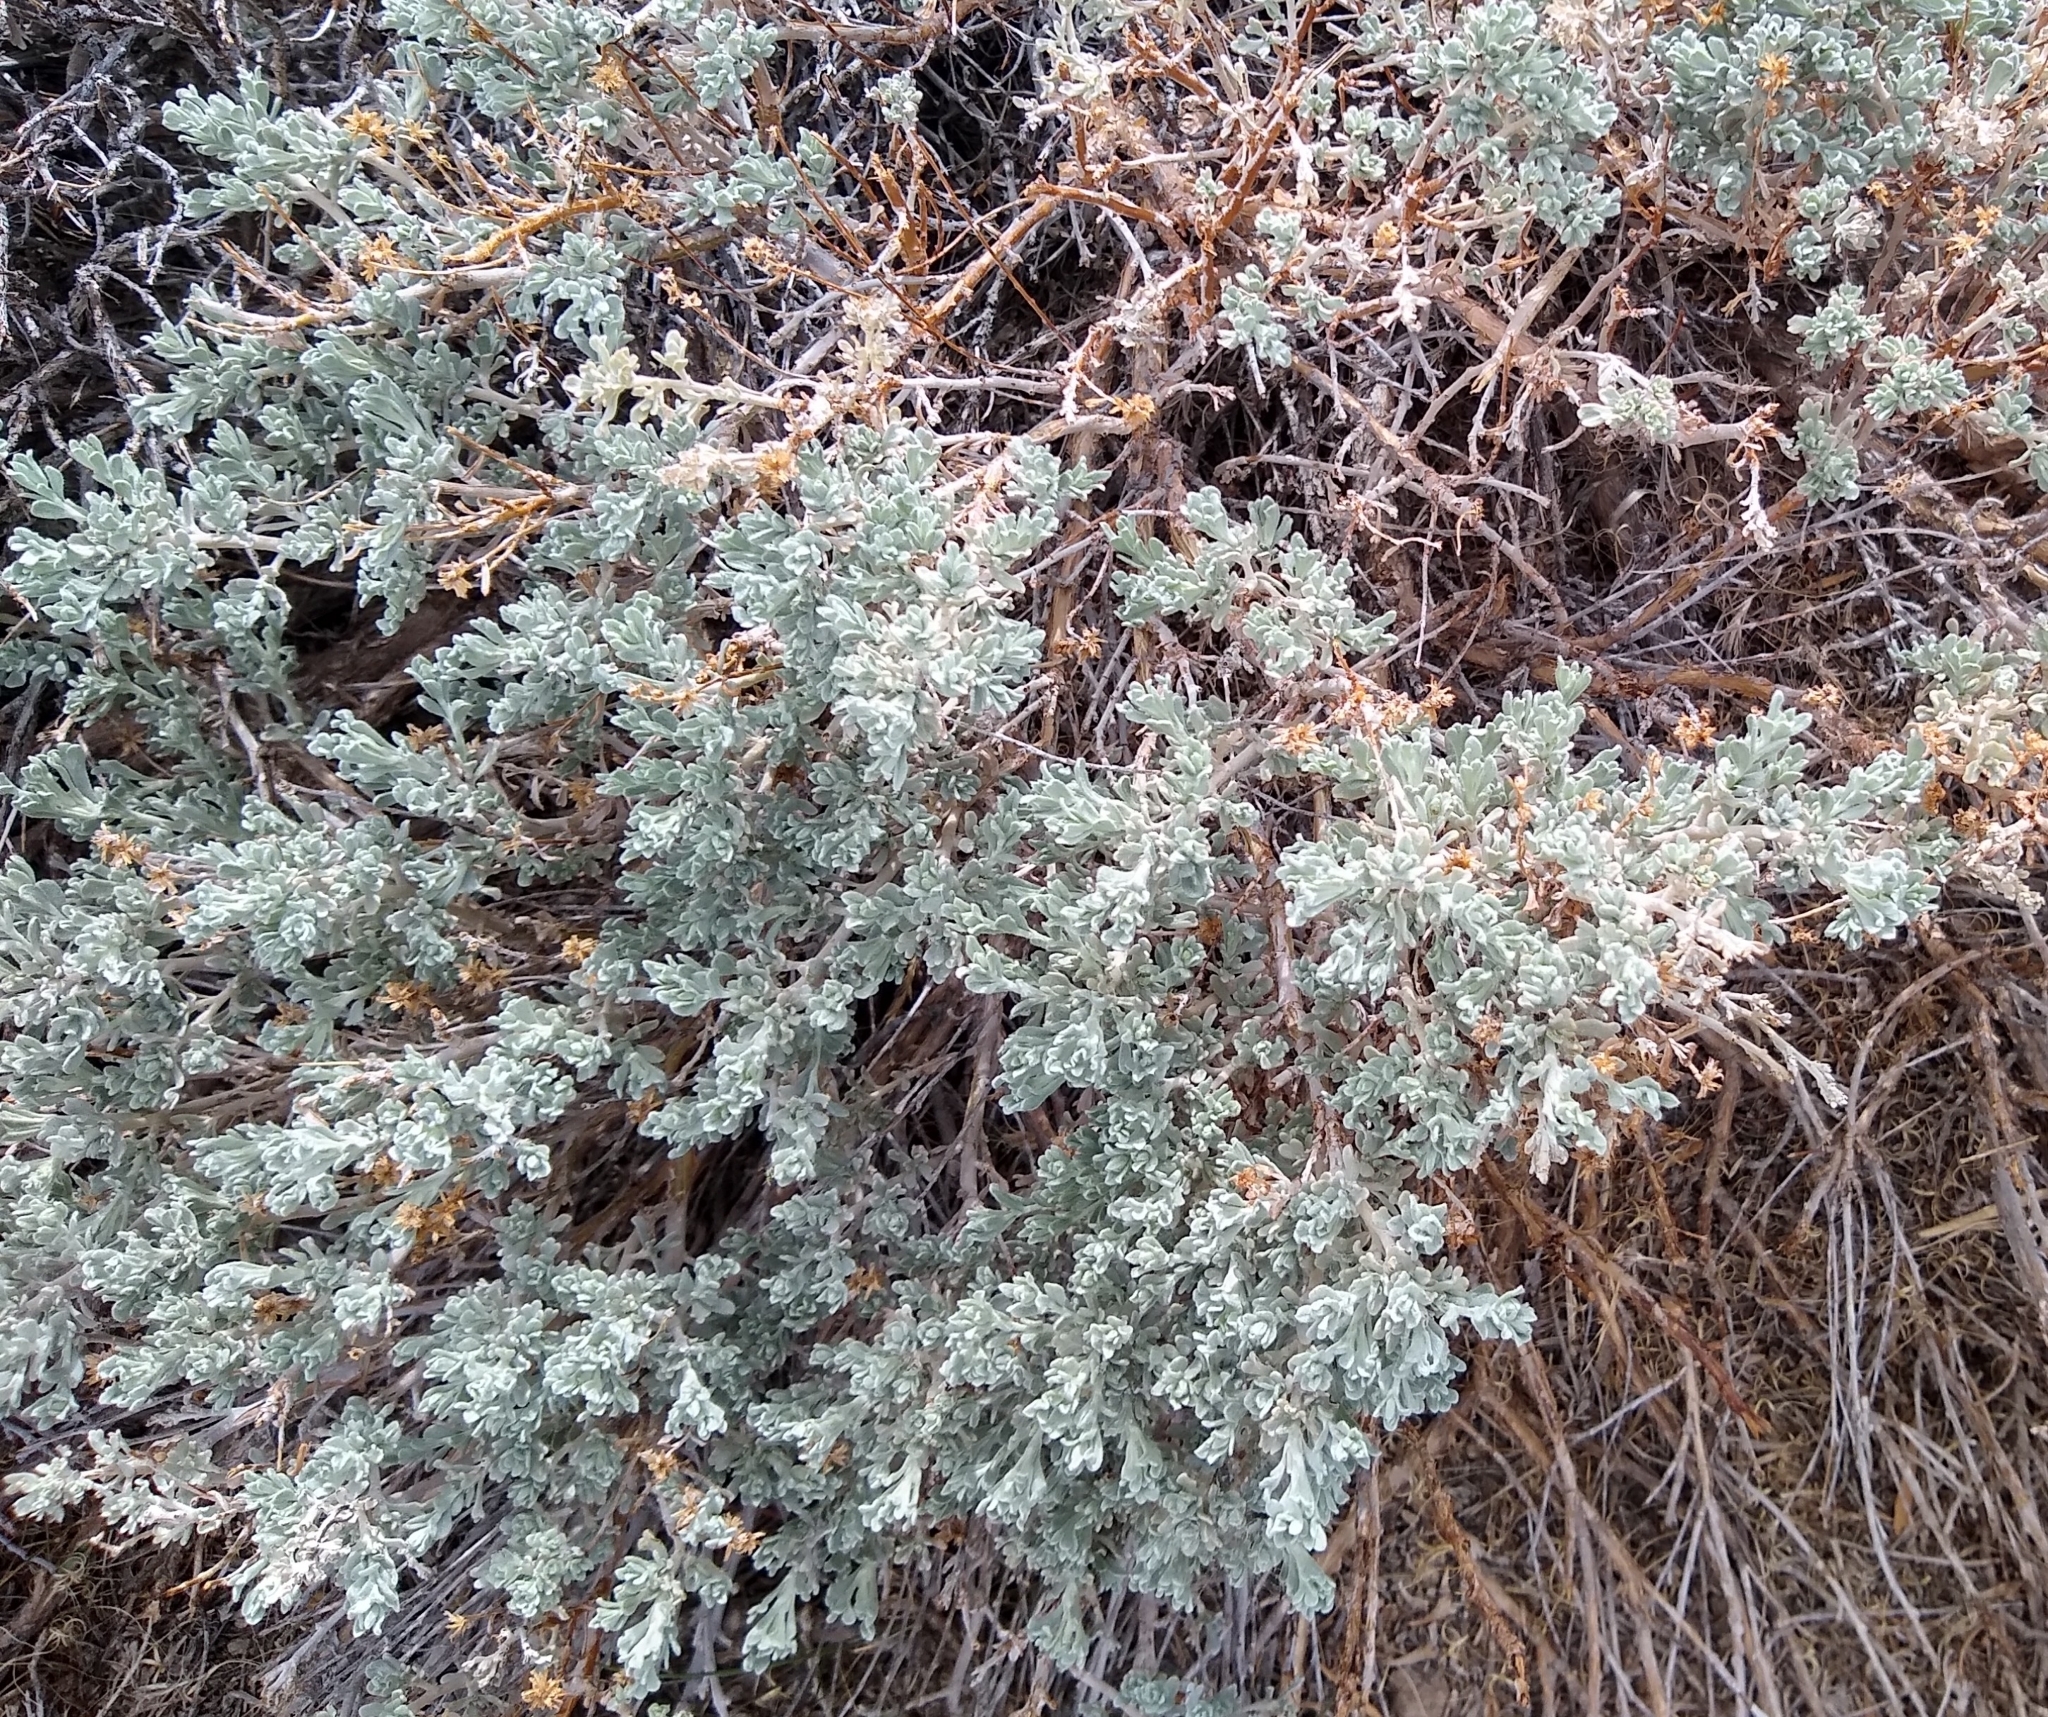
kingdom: Plantae
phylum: Tracheophyta
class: Magnoliopsida
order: Asterales
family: Asteraceae
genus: Artemisia
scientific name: Artemisia rothrockii
